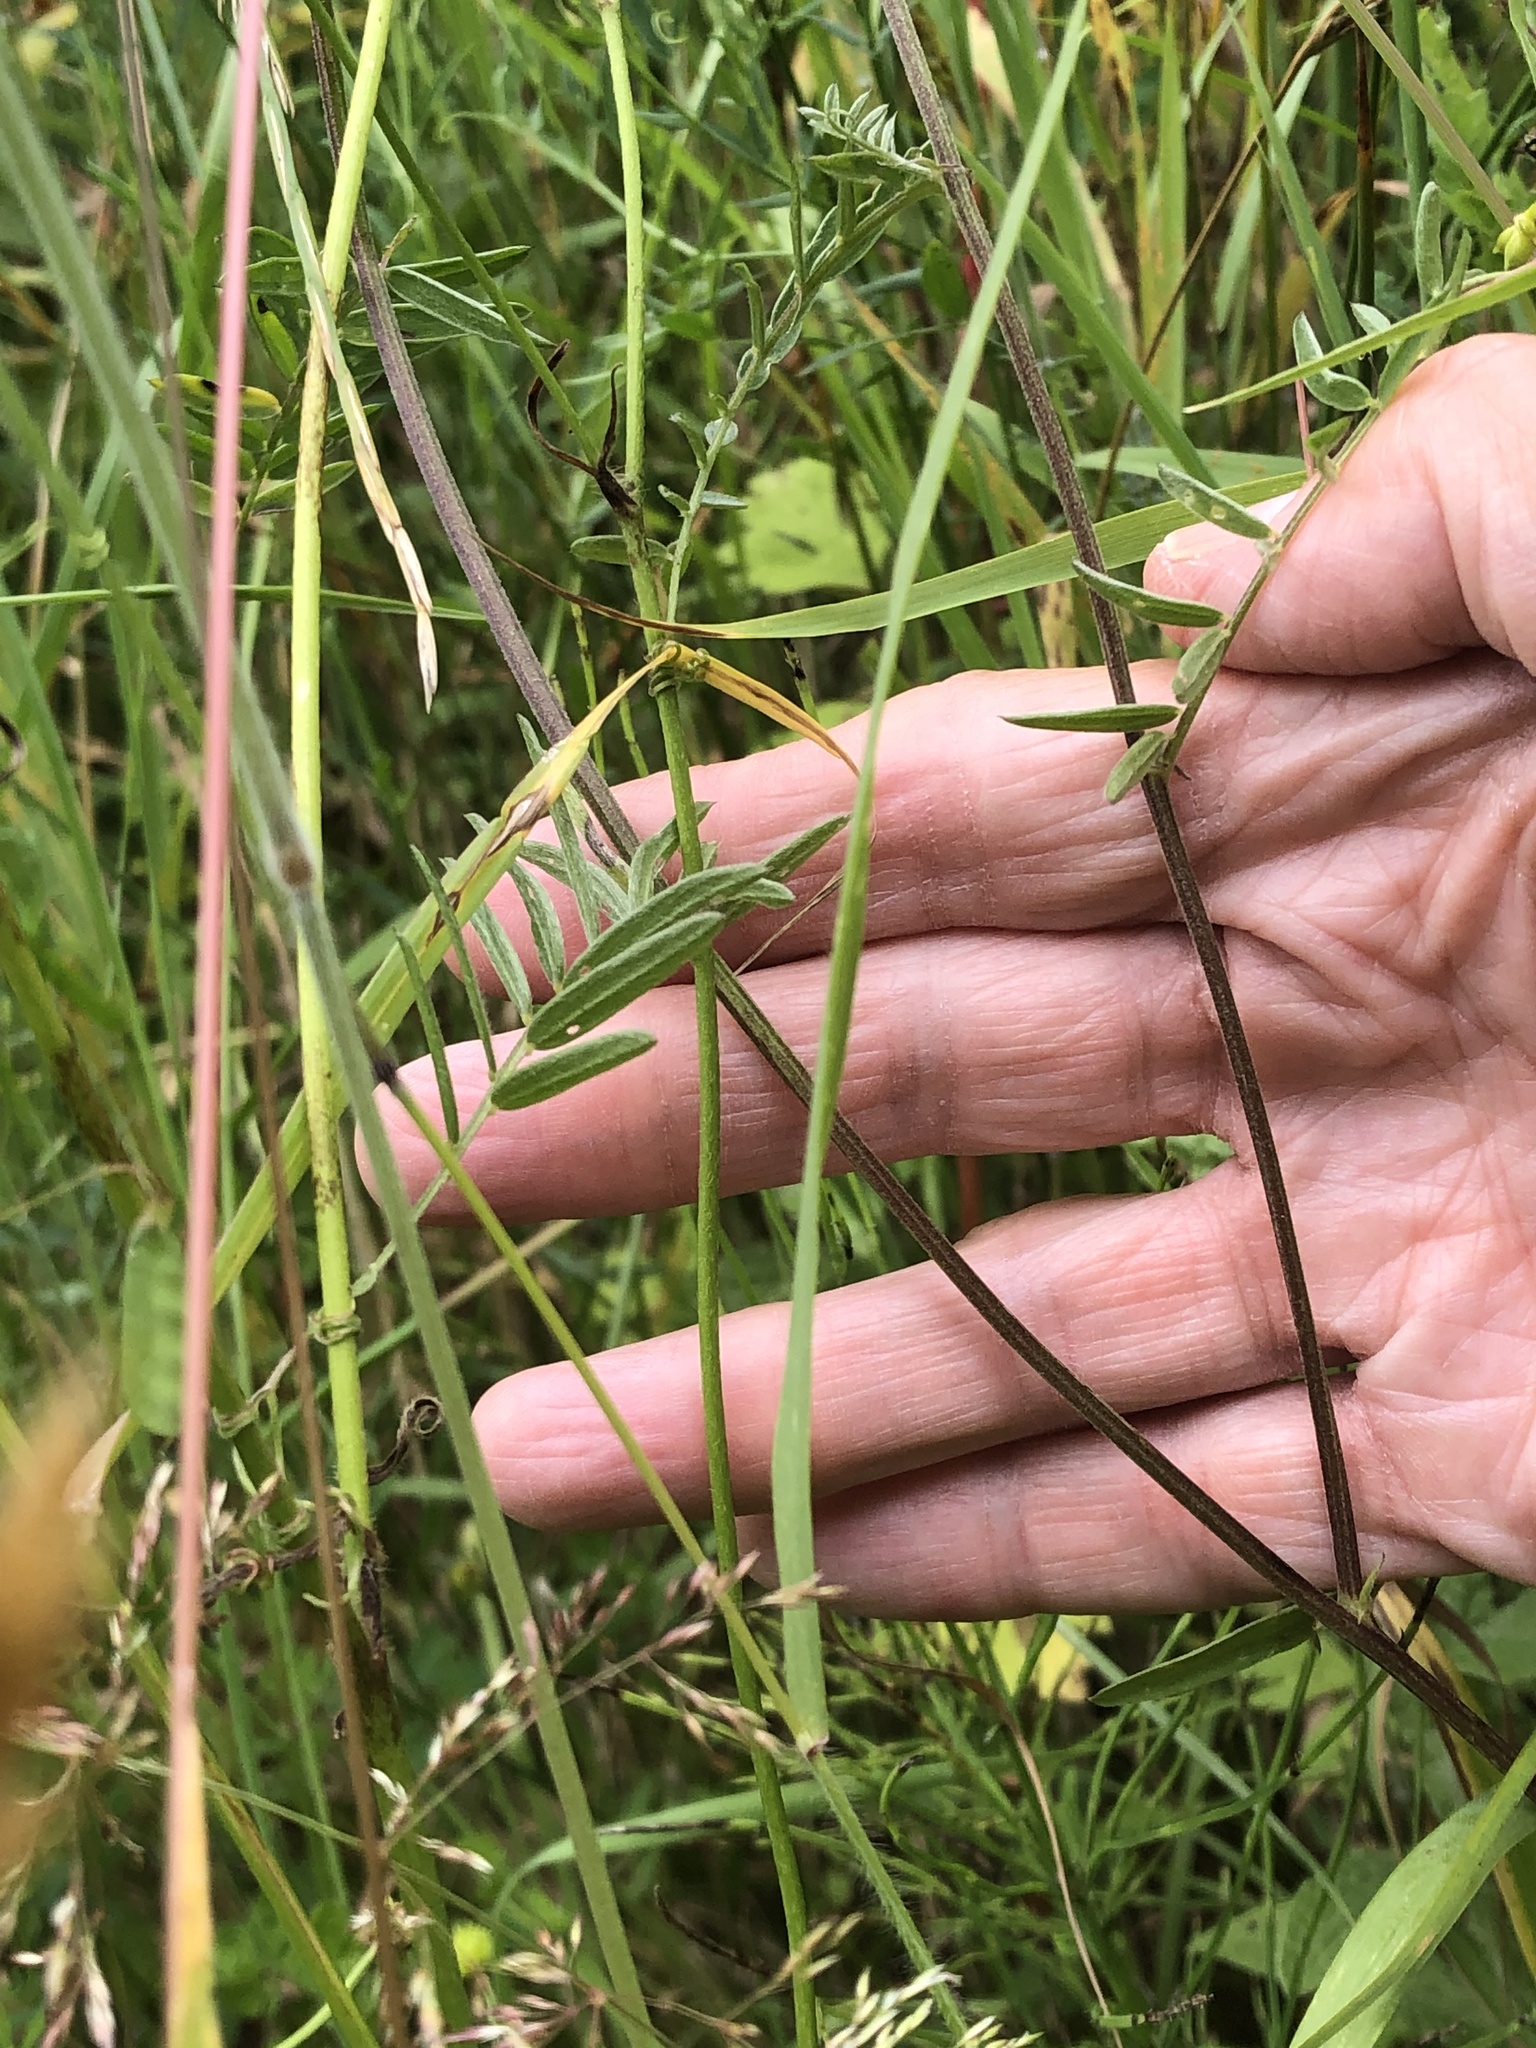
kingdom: Plantae
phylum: Tracheophyta
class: Magnoliopsida
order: Fabales
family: Fabaceae
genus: Vicia
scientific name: Vicia cracca
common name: Bird vetch
